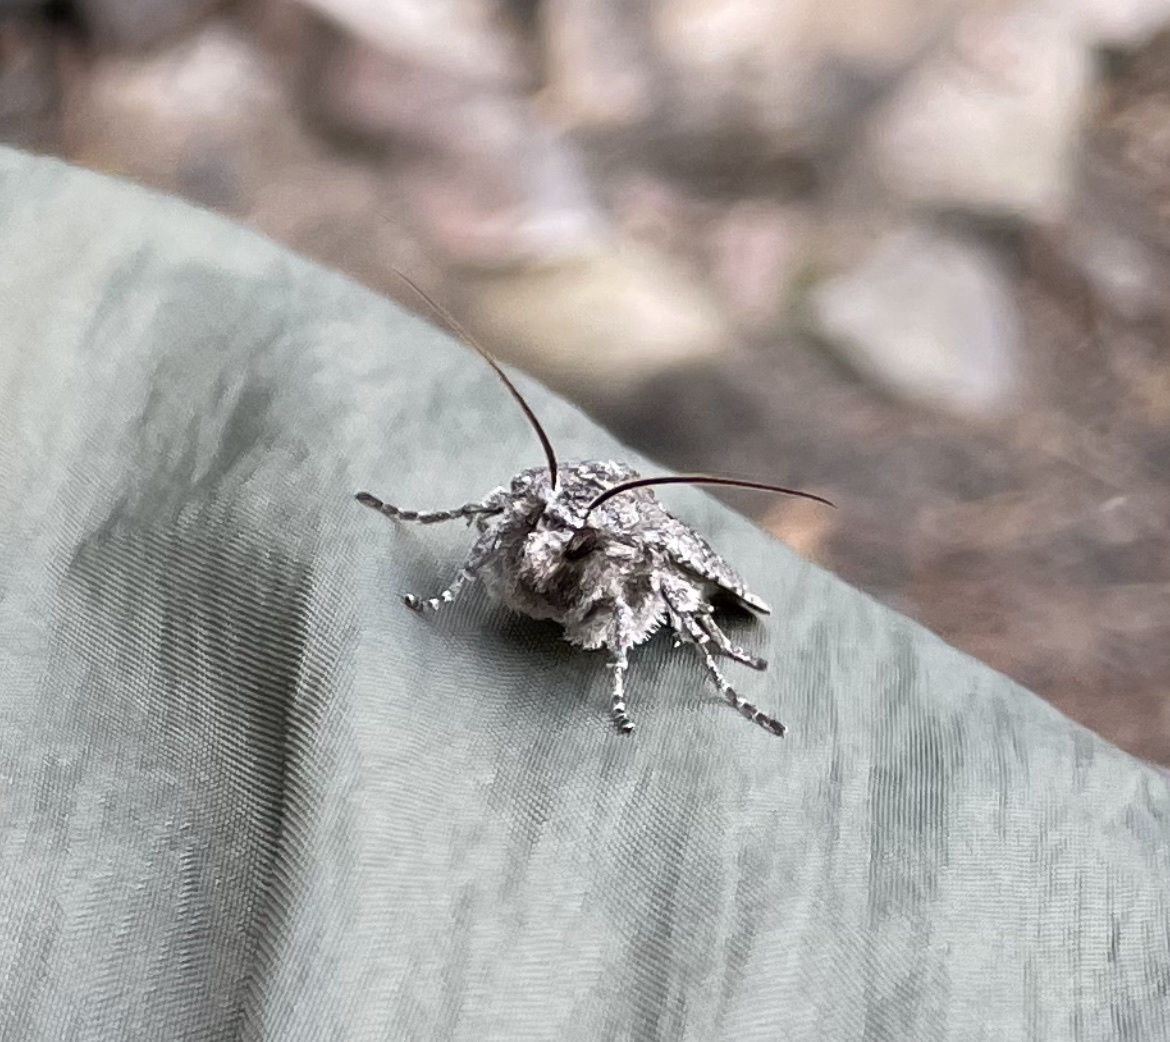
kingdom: Animalia
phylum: Arthropoda
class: Insecta
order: Lepidoptera
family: Noctuidae
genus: Lithophane
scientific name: Lithophane grotei
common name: Grote's pinion moth
